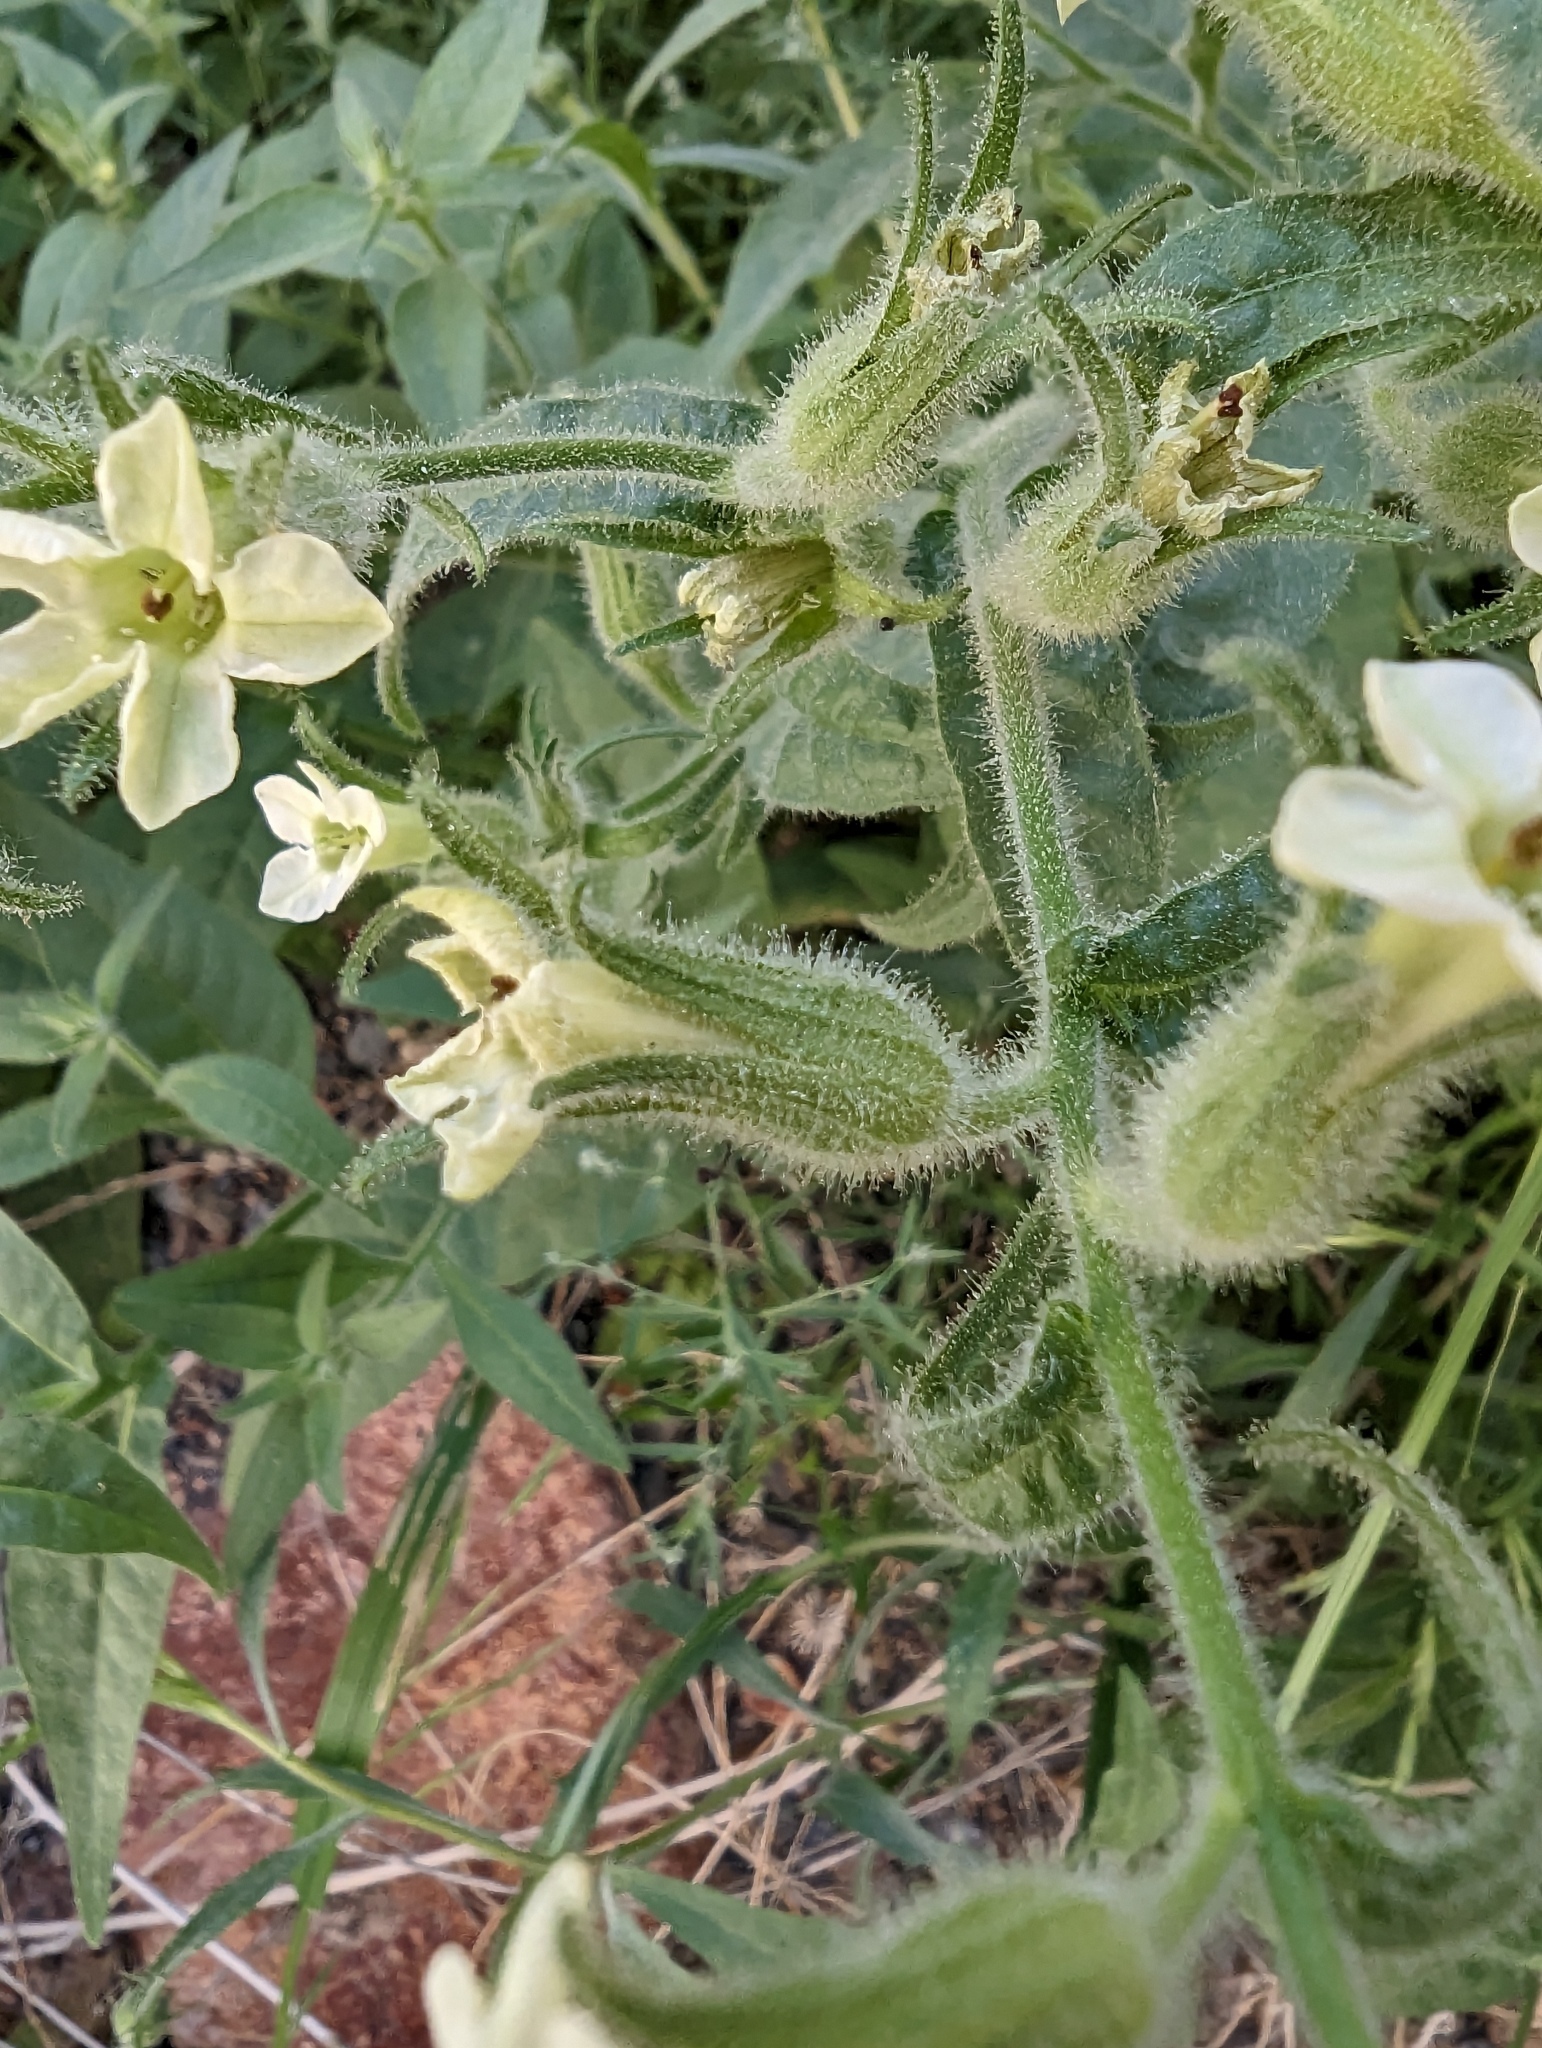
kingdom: Plantae
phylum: Tracheophyta
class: Magnoliopsida
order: Solanales
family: Solanaceae
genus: Nicotiana
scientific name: Nicotiana obtusifolia
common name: Desert tobacco
